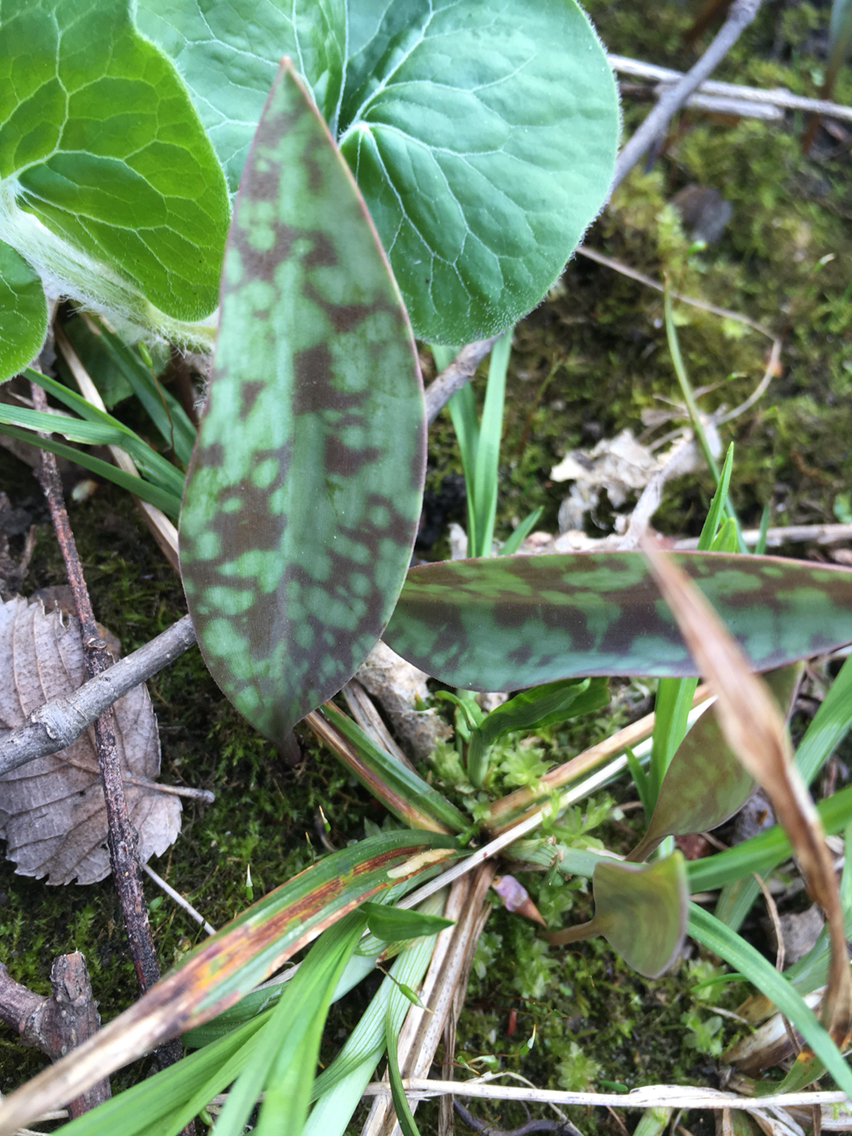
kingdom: Plantae
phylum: Tracheophyta
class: Liliopsida
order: Liliales
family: Liliaceae
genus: Erythronium
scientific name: Erythronium albidum
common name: White trout-lily
